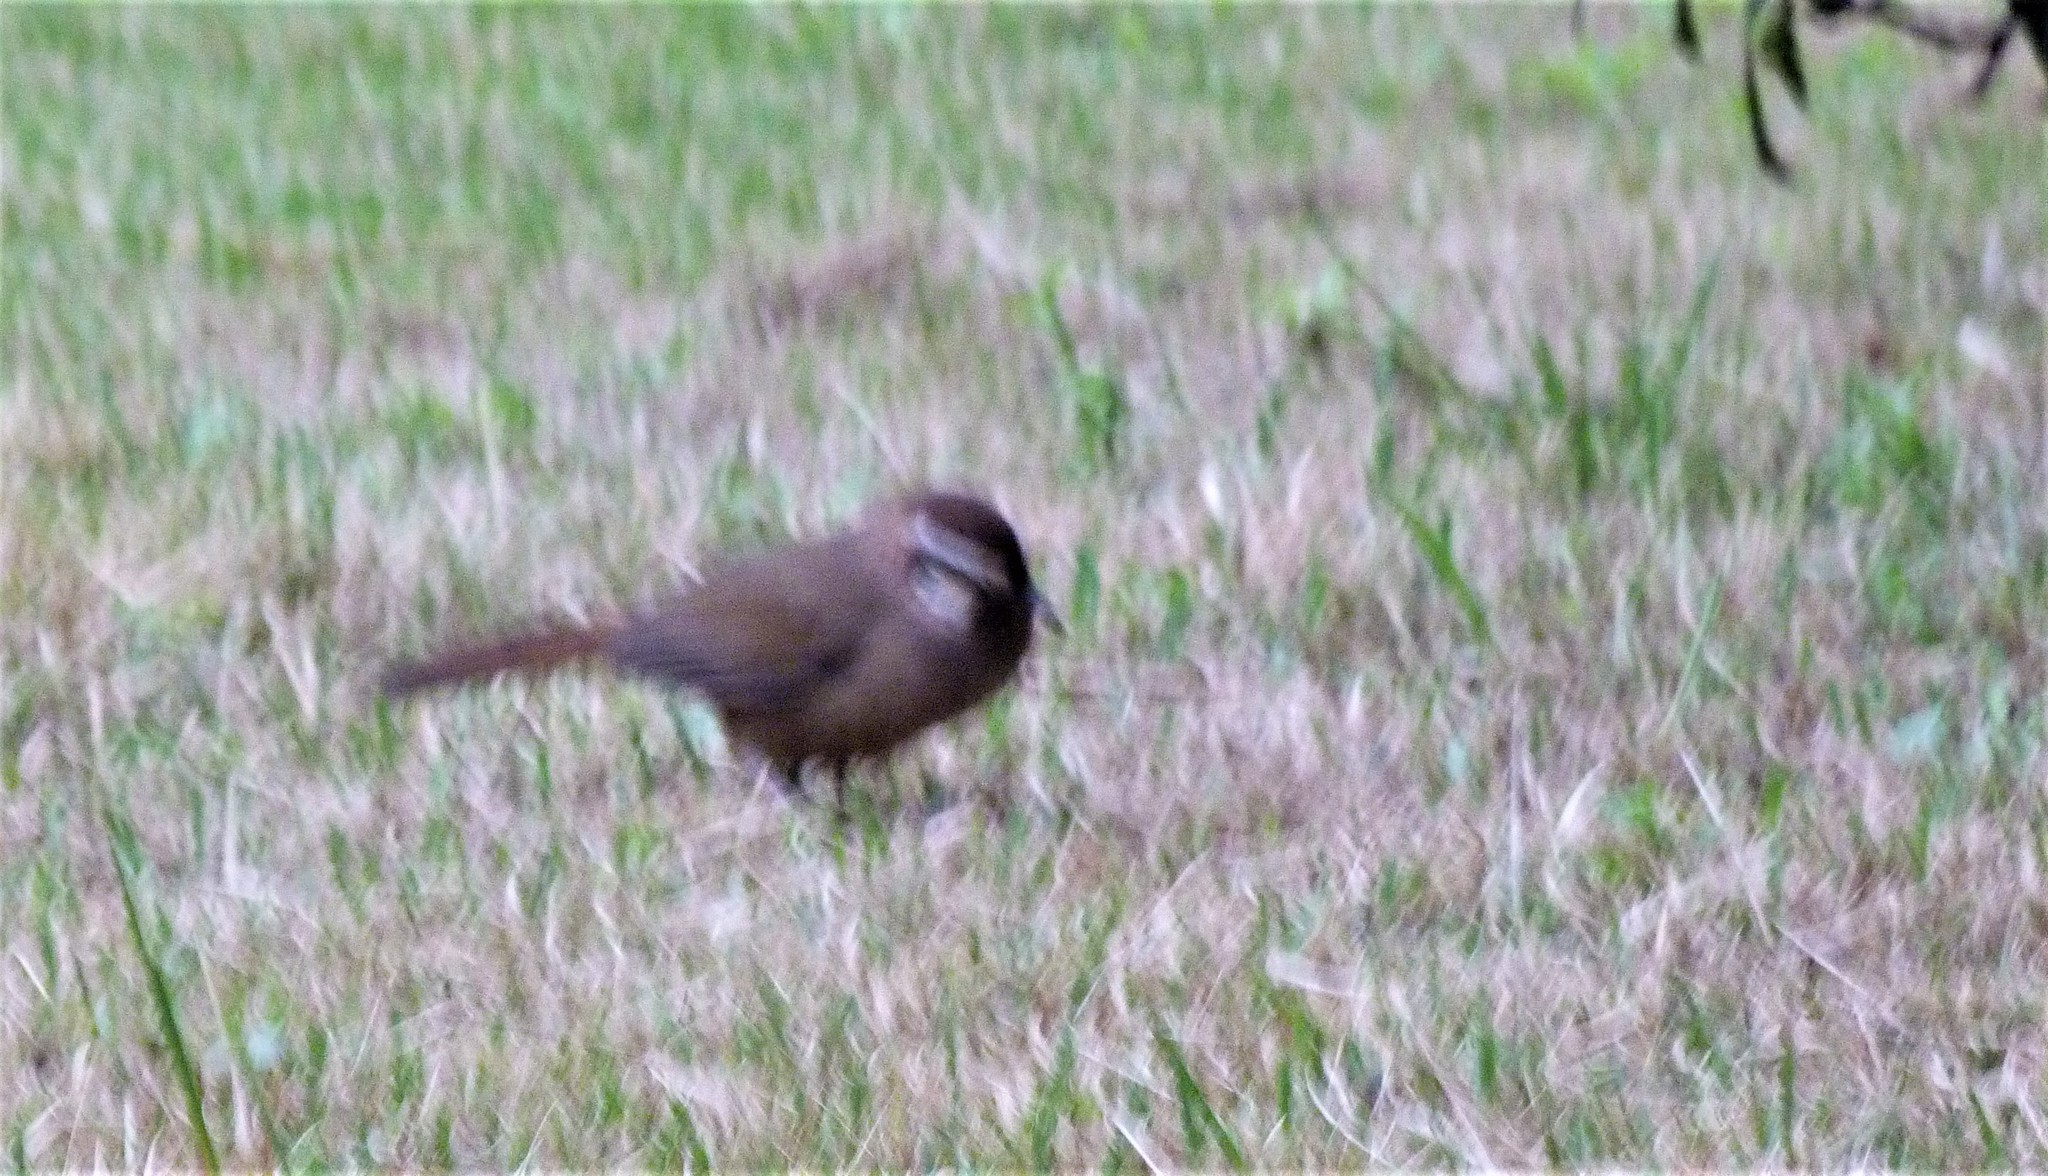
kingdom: Animalia
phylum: Chordata
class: Aves
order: Passeriformes
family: Leiothrichidae
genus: Pterorhinus
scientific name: Pterorhinus sannio
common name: White-browed laughingthrush
